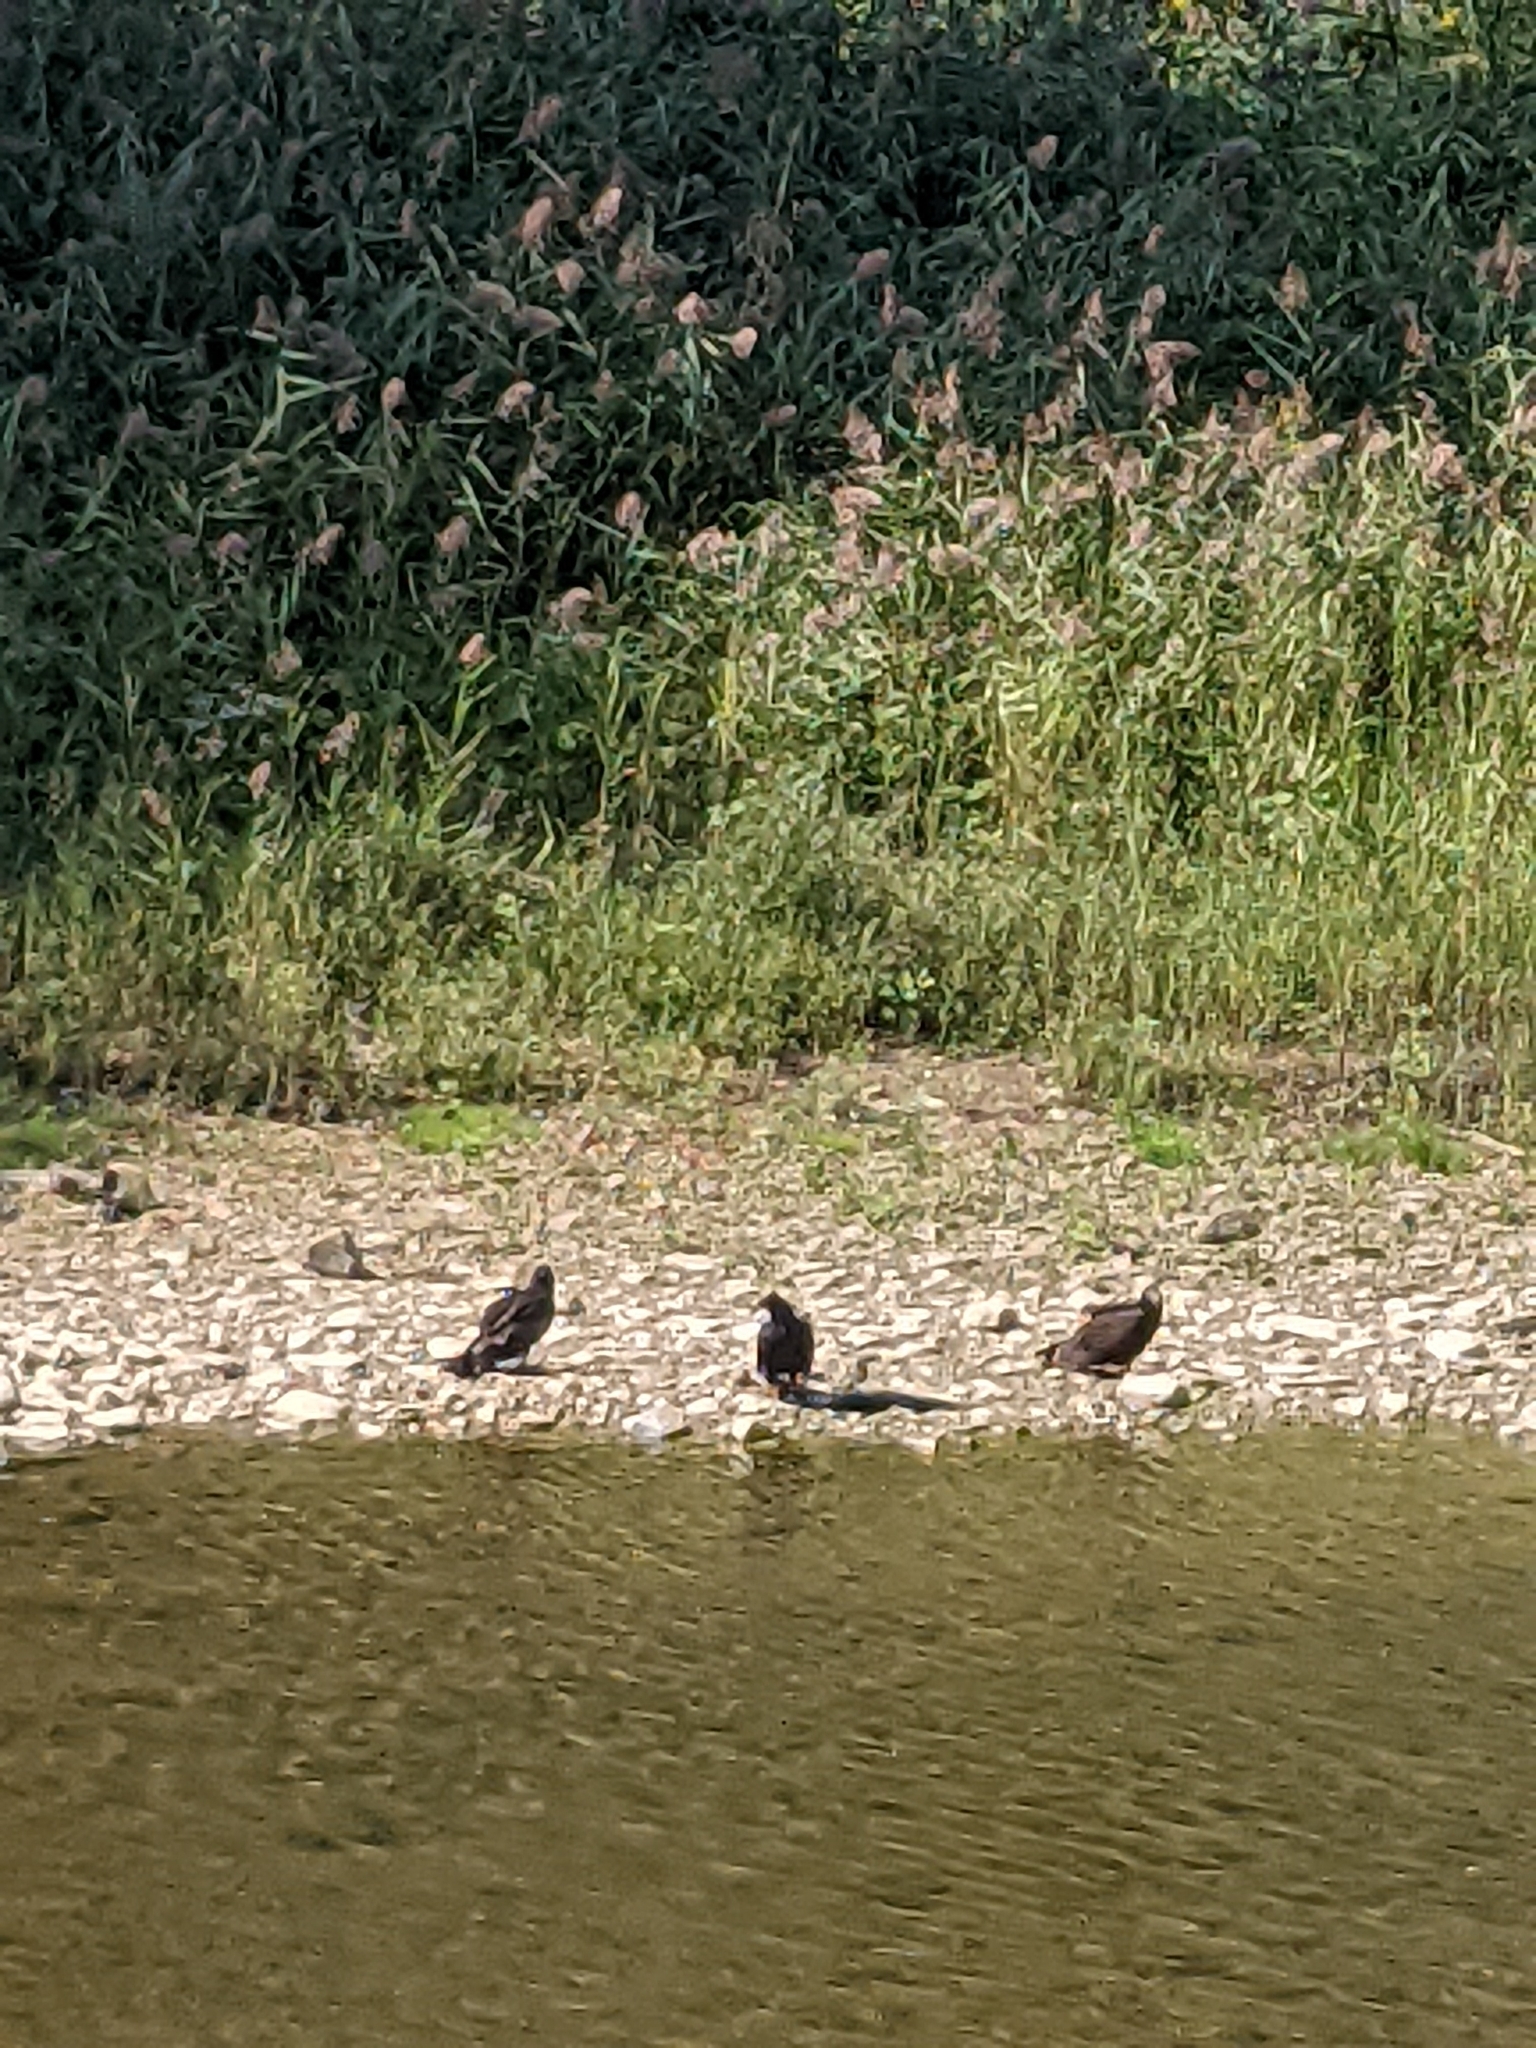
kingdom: Animalia
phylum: Chordata
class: Aves
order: Accipitriformes
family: Cathartidae
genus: Cathartes
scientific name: Cathartes aura
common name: Turkey vulture
